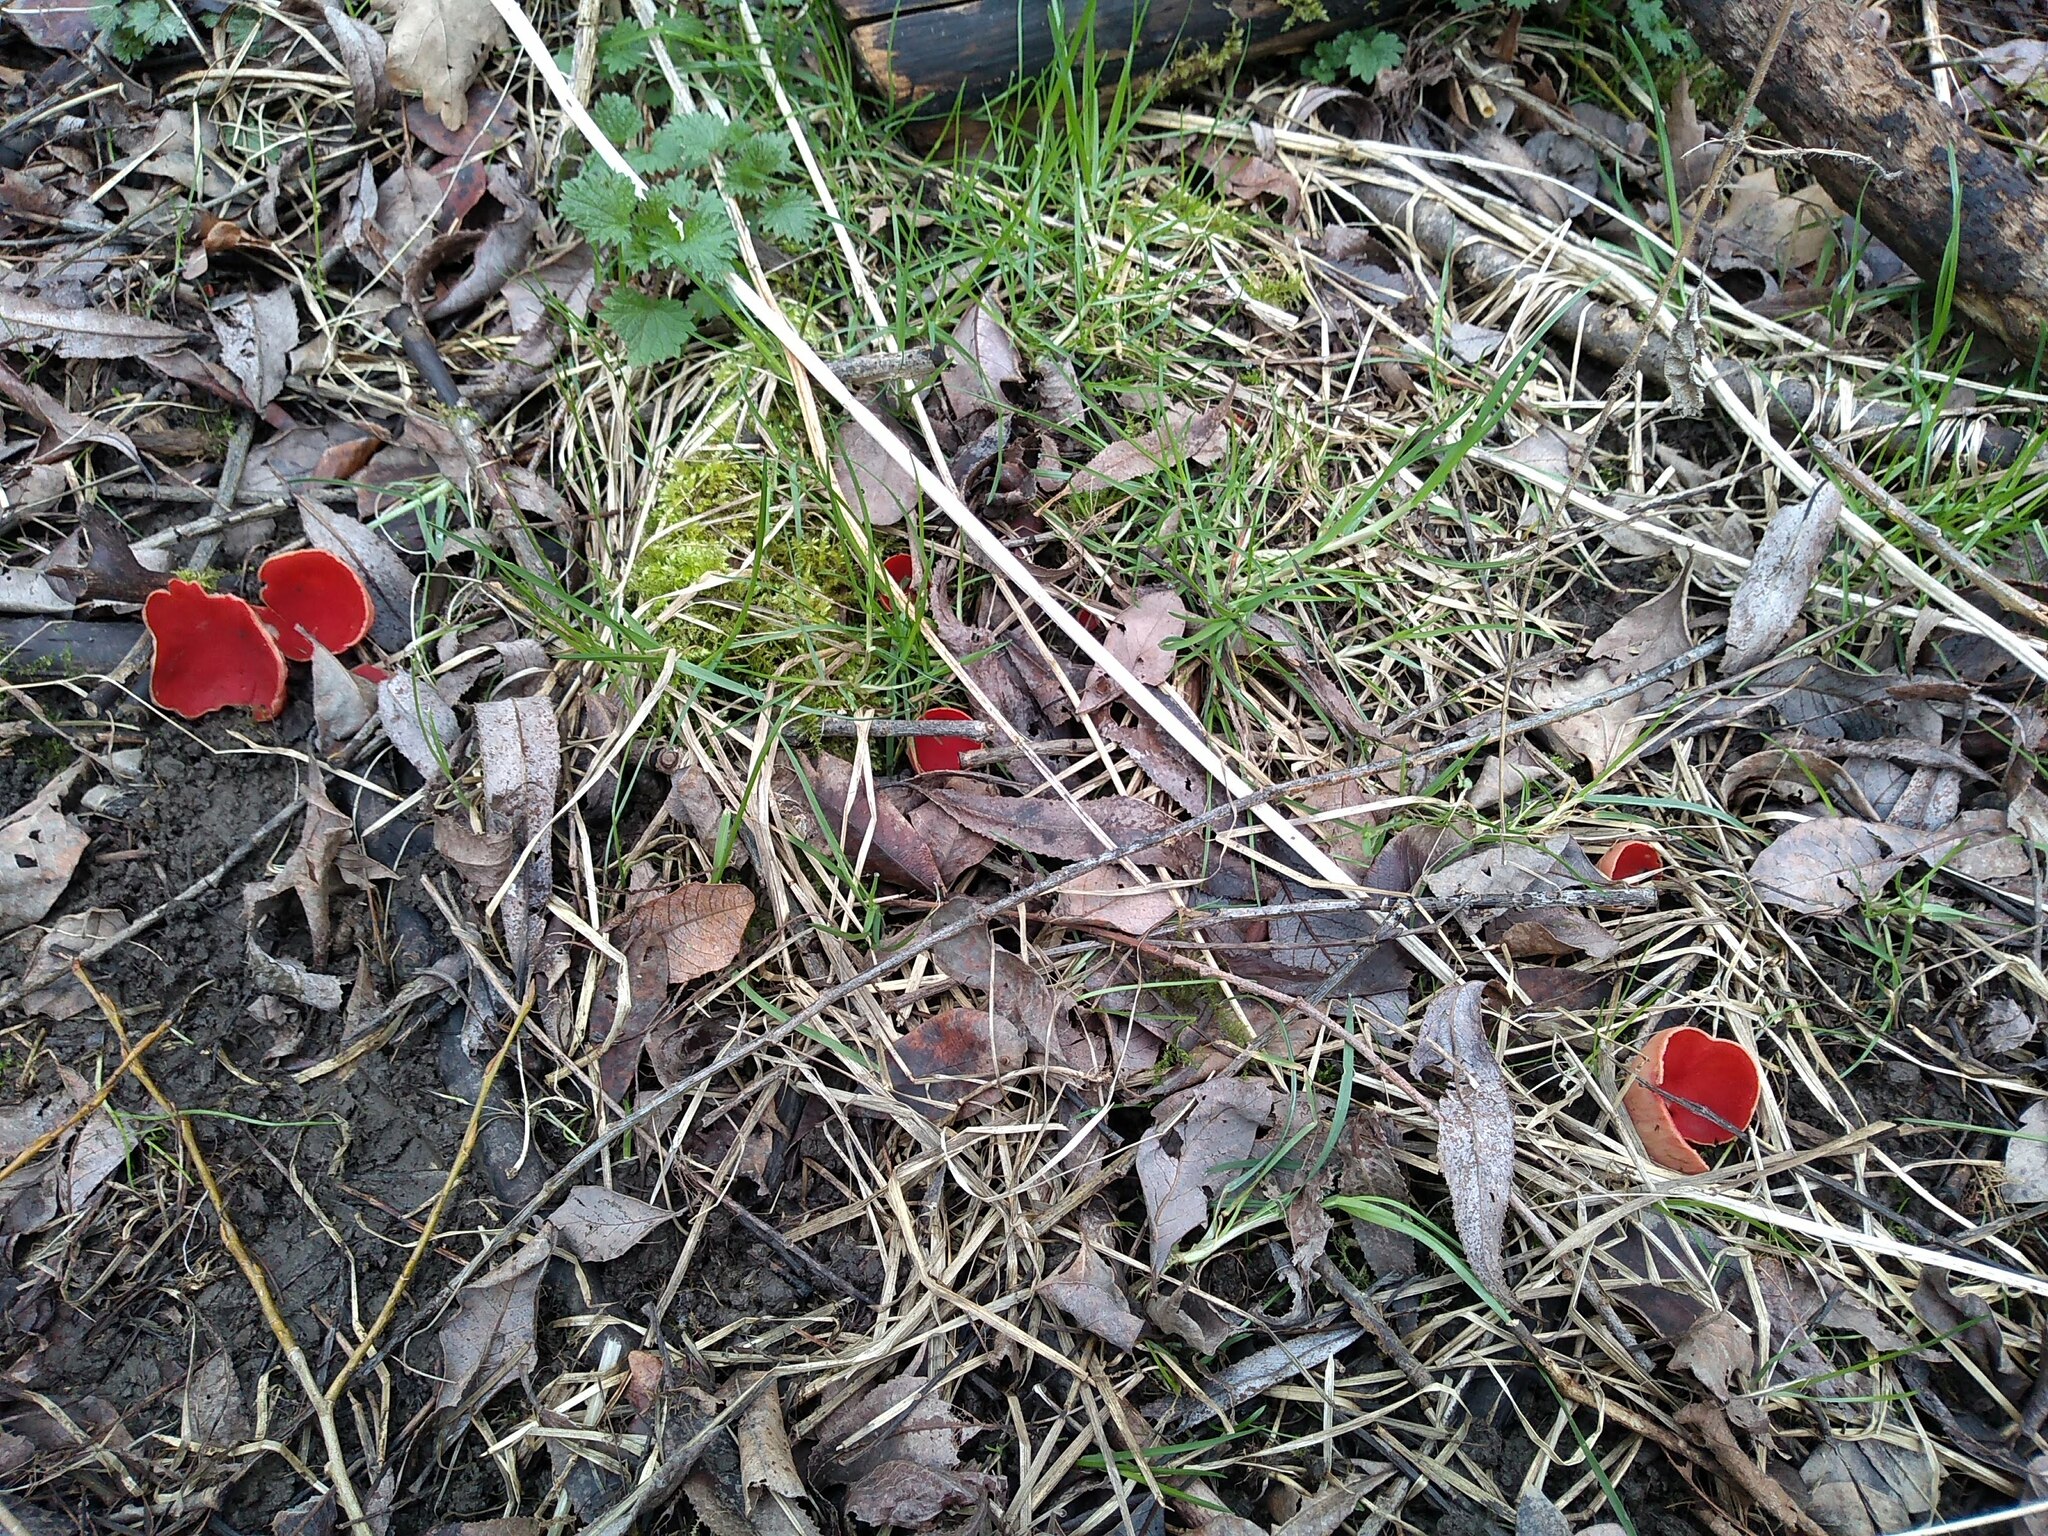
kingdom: Fungi
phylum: Ascomycota
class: Pezizomycetes
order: Pezizales
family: Sarcoscyphaceae
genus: Sarcoscypha
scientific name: Sarcoscypha
